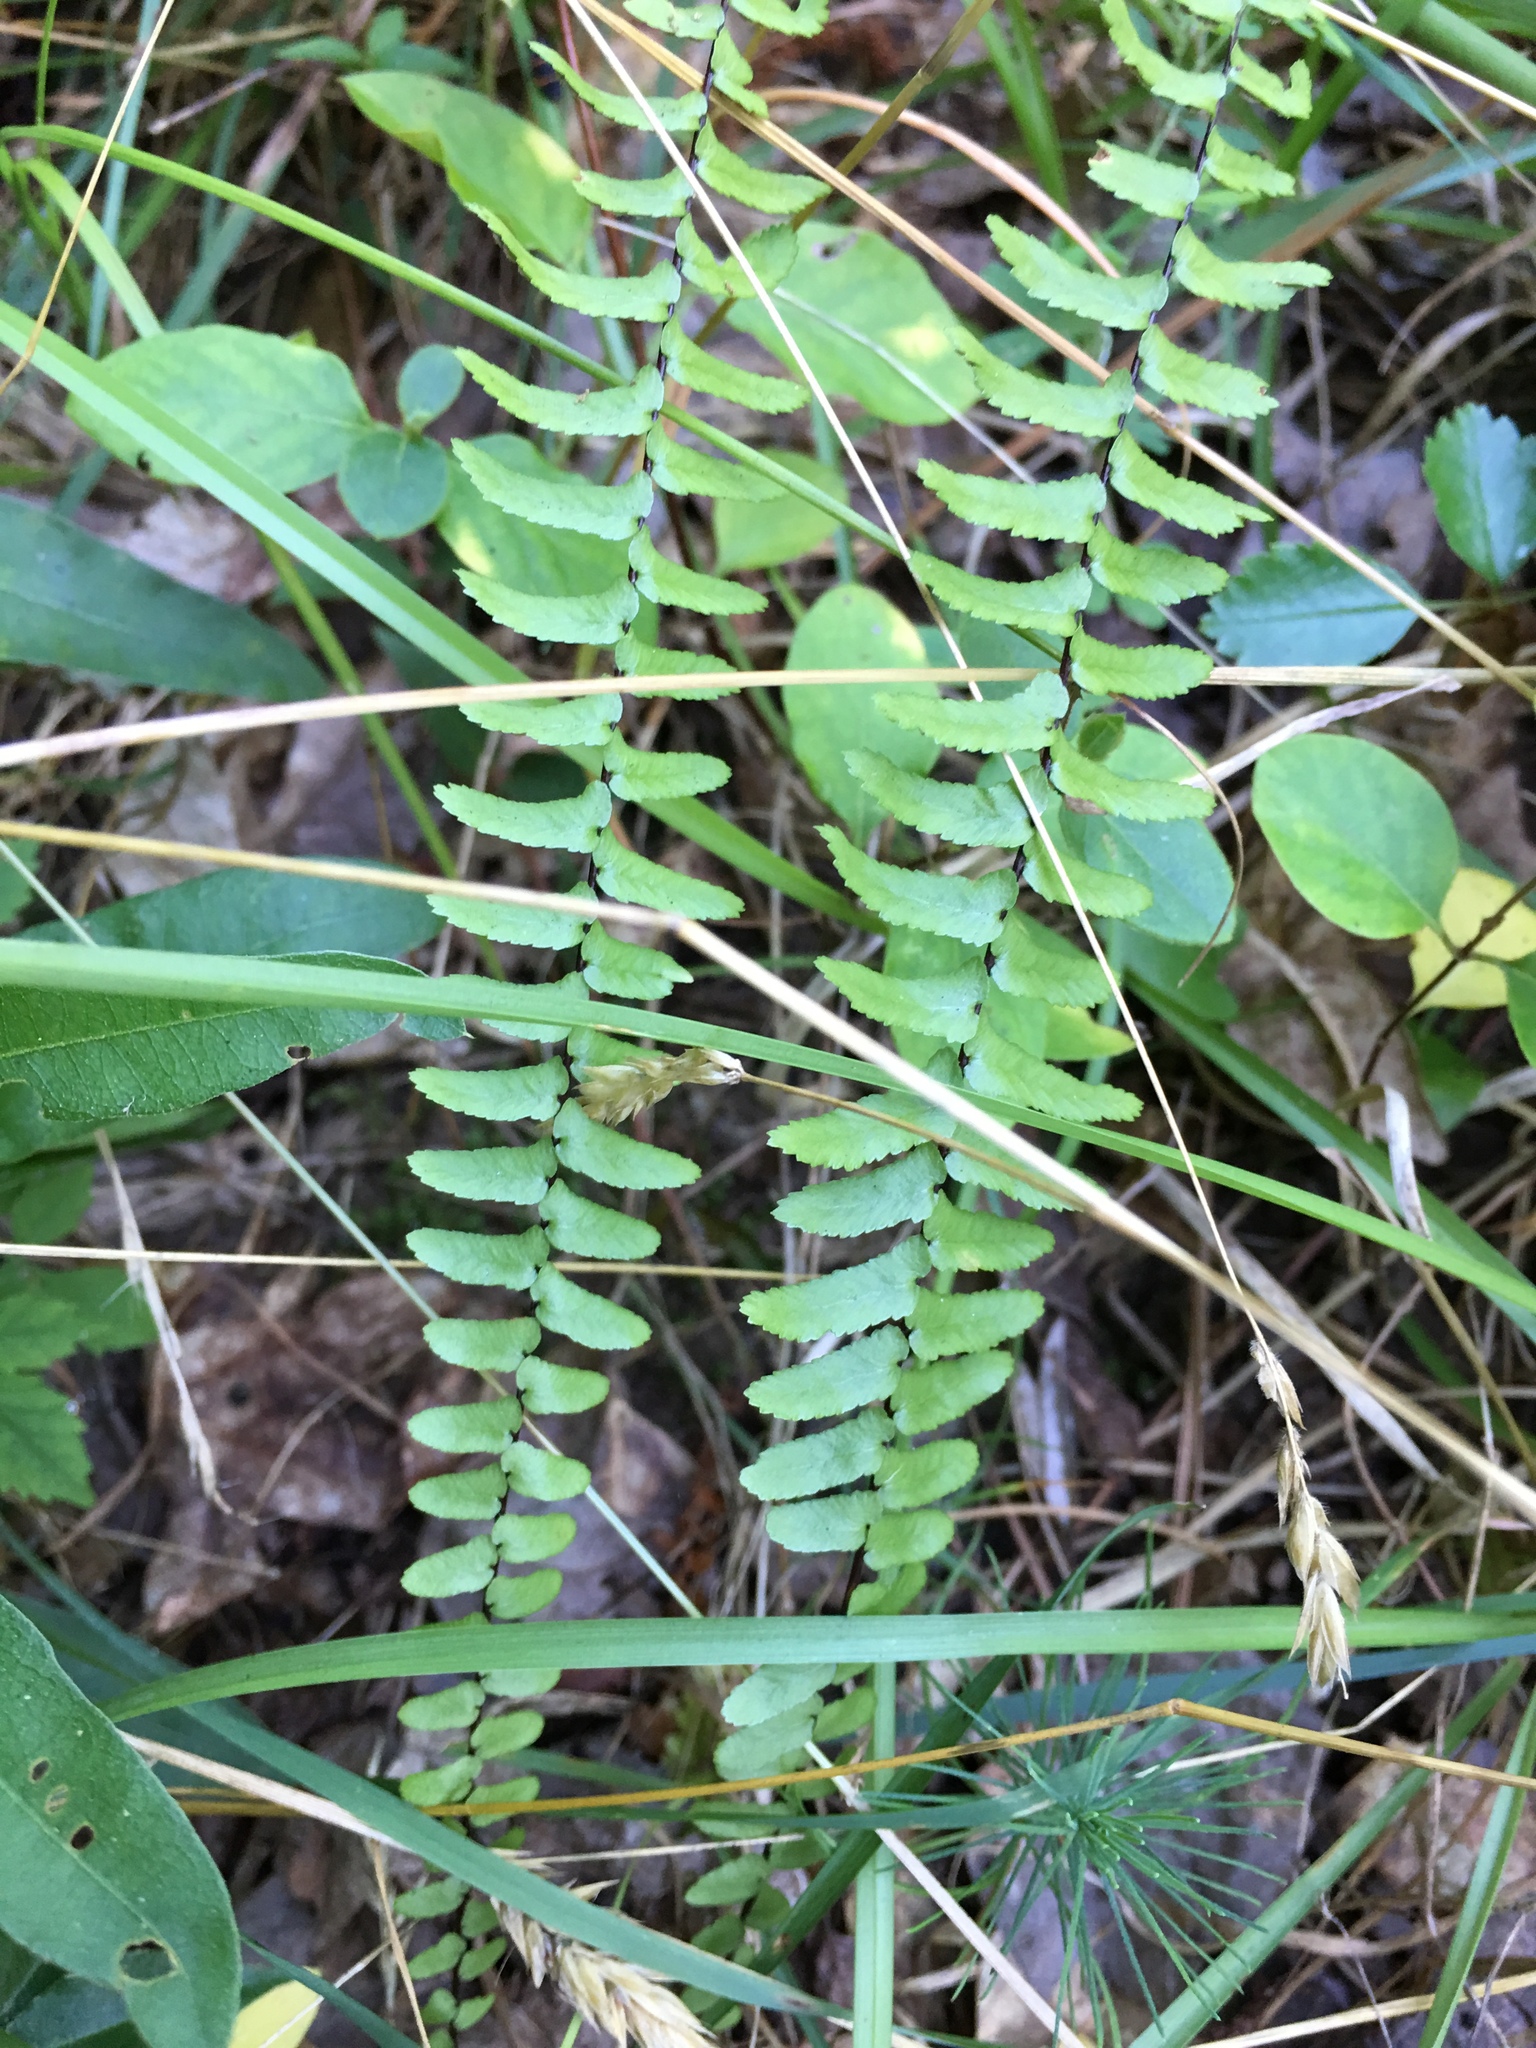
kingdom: Plantae
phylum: Tracheophyta
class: Polypodiopsida
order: Polypodiales
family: Aspleniaceae
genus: Asplenium
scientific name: Asplenium platyneuron
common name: Ebony spleenwort
